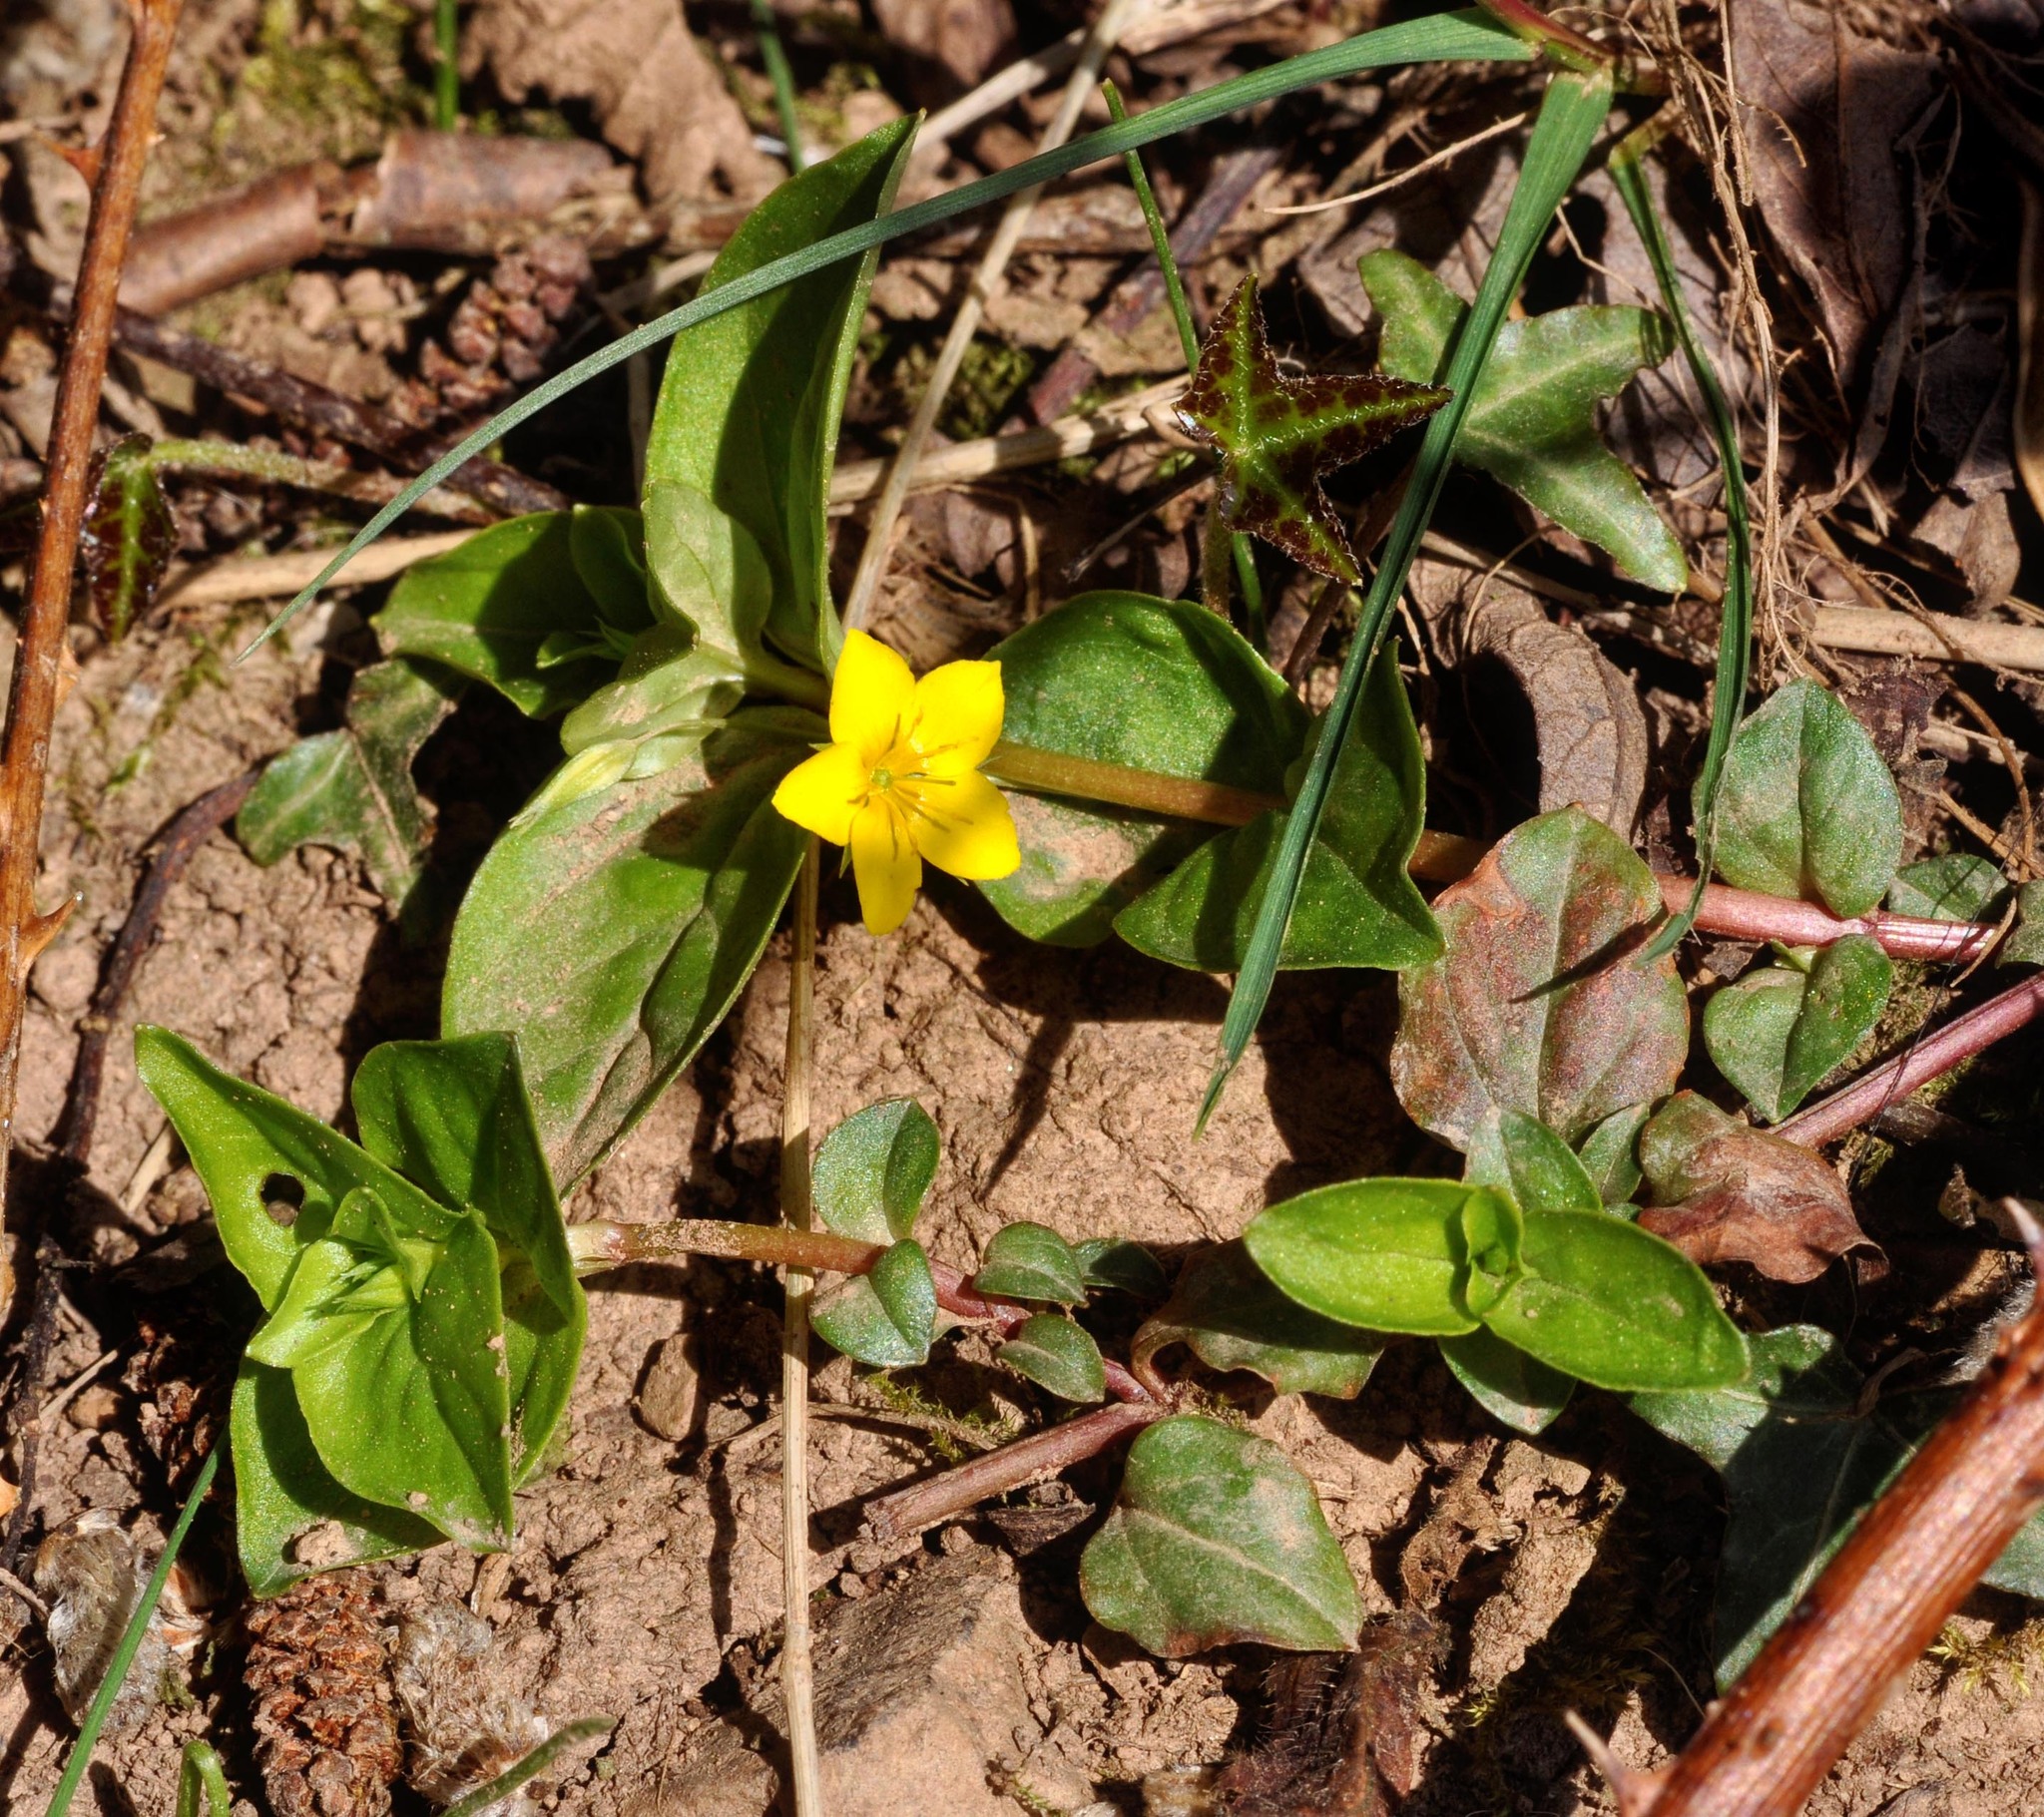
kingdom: Plantae
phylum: Tracheophyta
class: Magnoliopsida
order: Ericales
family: Primulaceae
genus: Lysimachia
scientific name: Lysimachia nemorum
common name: Yellow pimpernel
